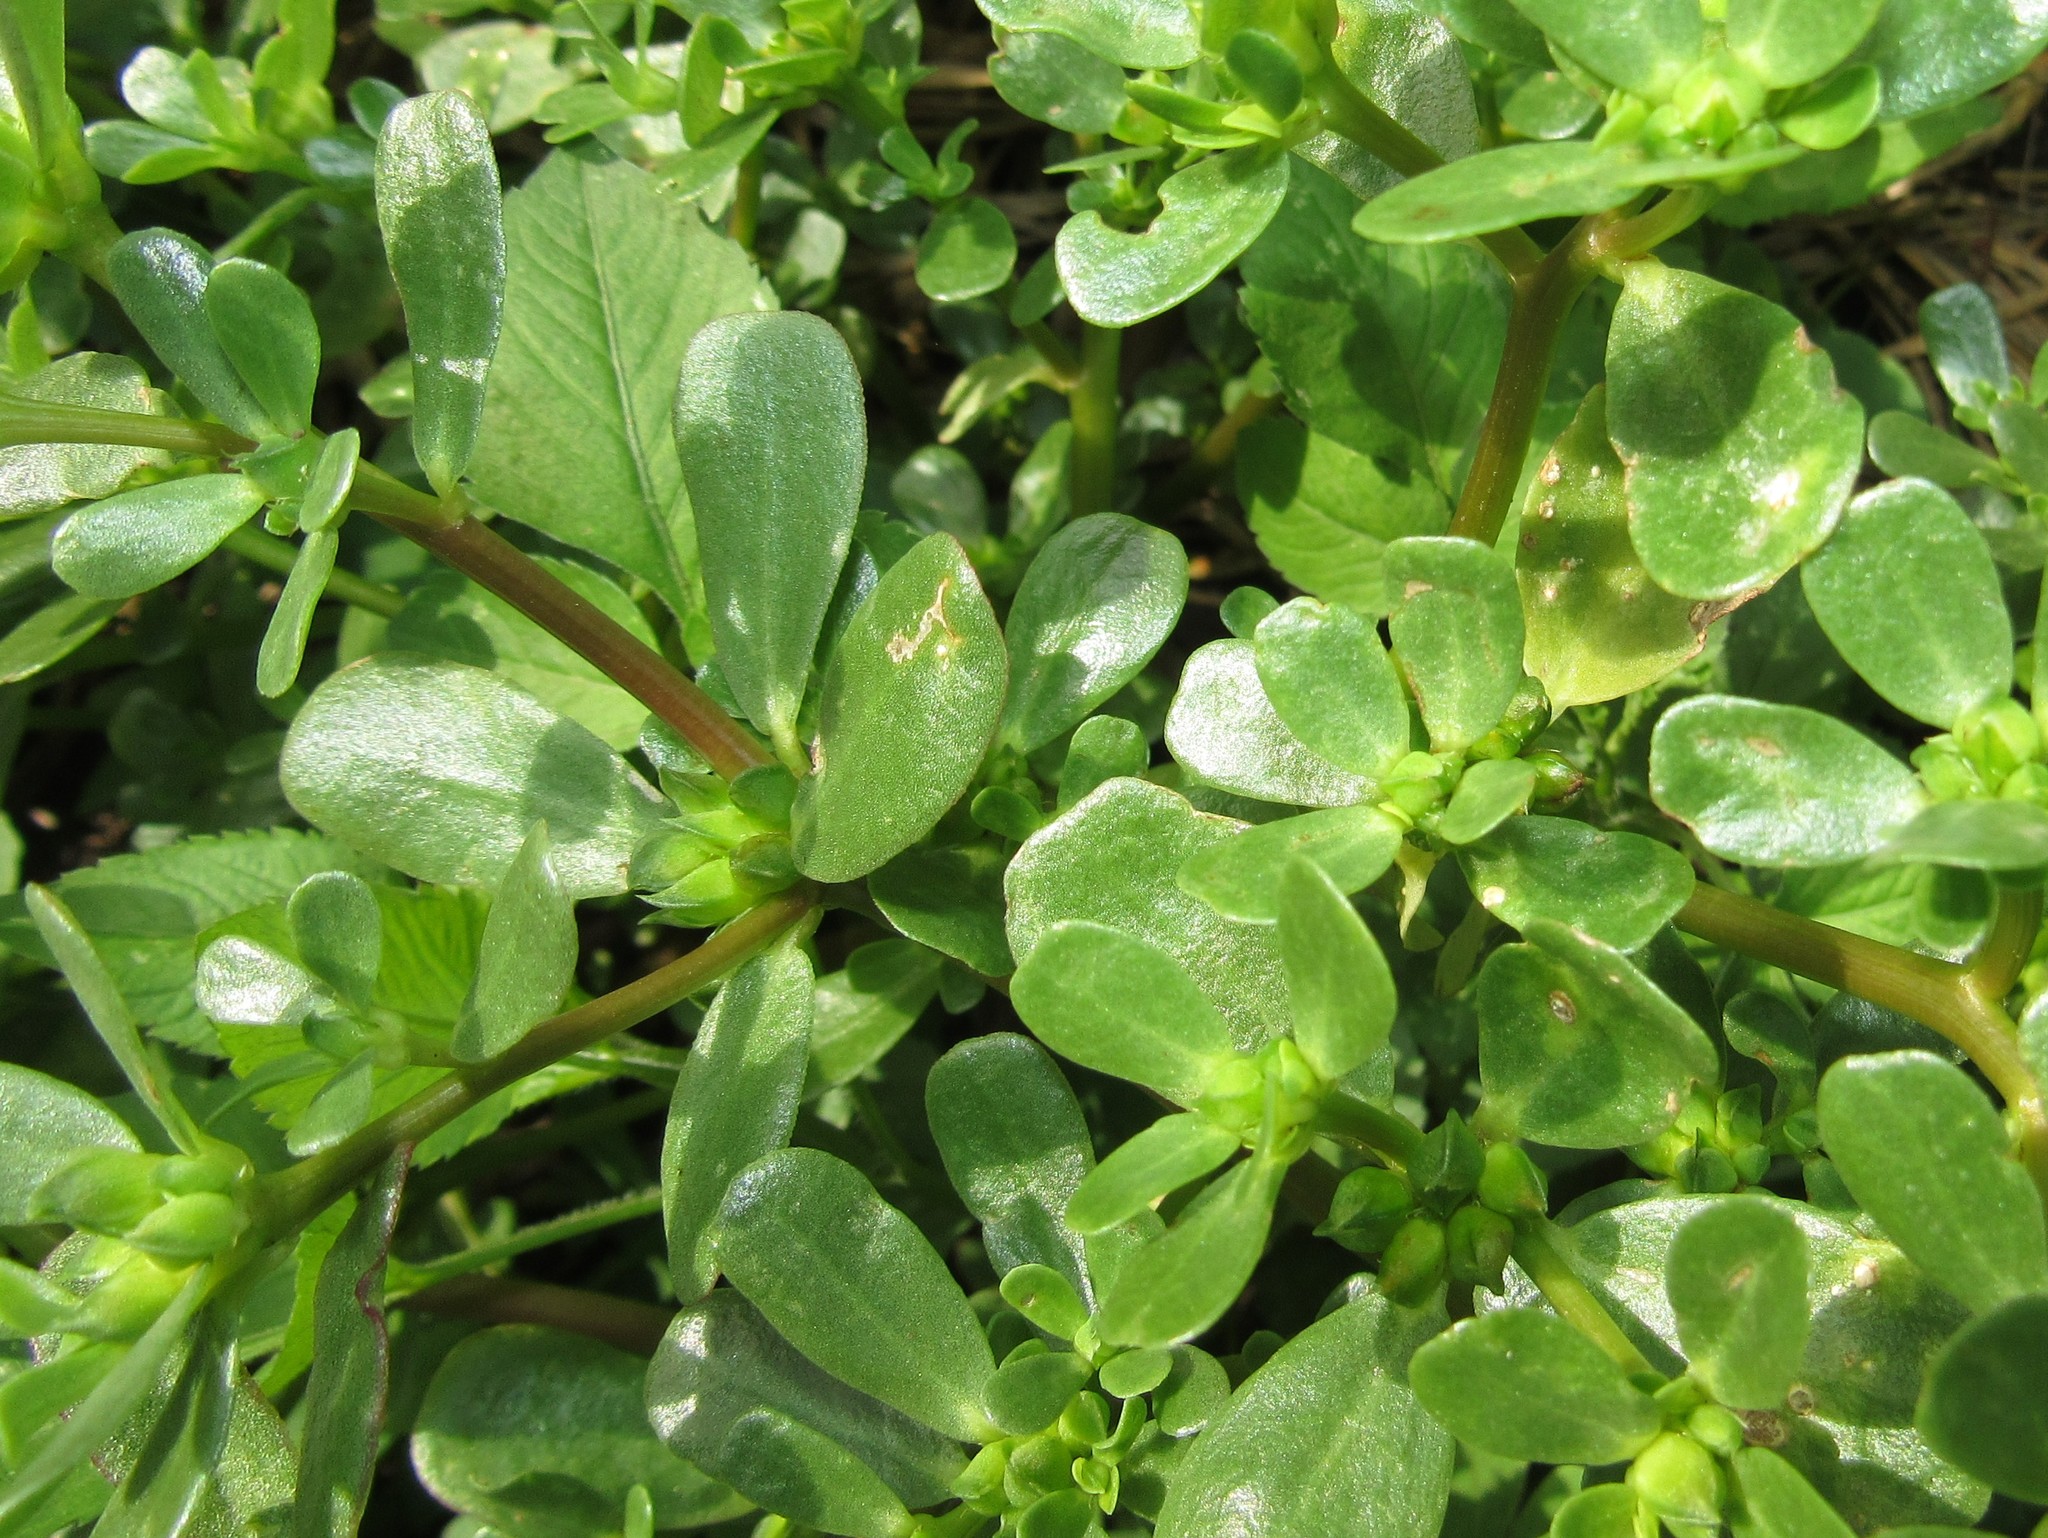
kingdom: Plantae
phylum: Tracheophyta
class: Magnoliopsida
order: Caryophyllales
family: Portulacaceae
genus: Portulaca
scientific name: Portulaca oleracea
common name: Common purslane
